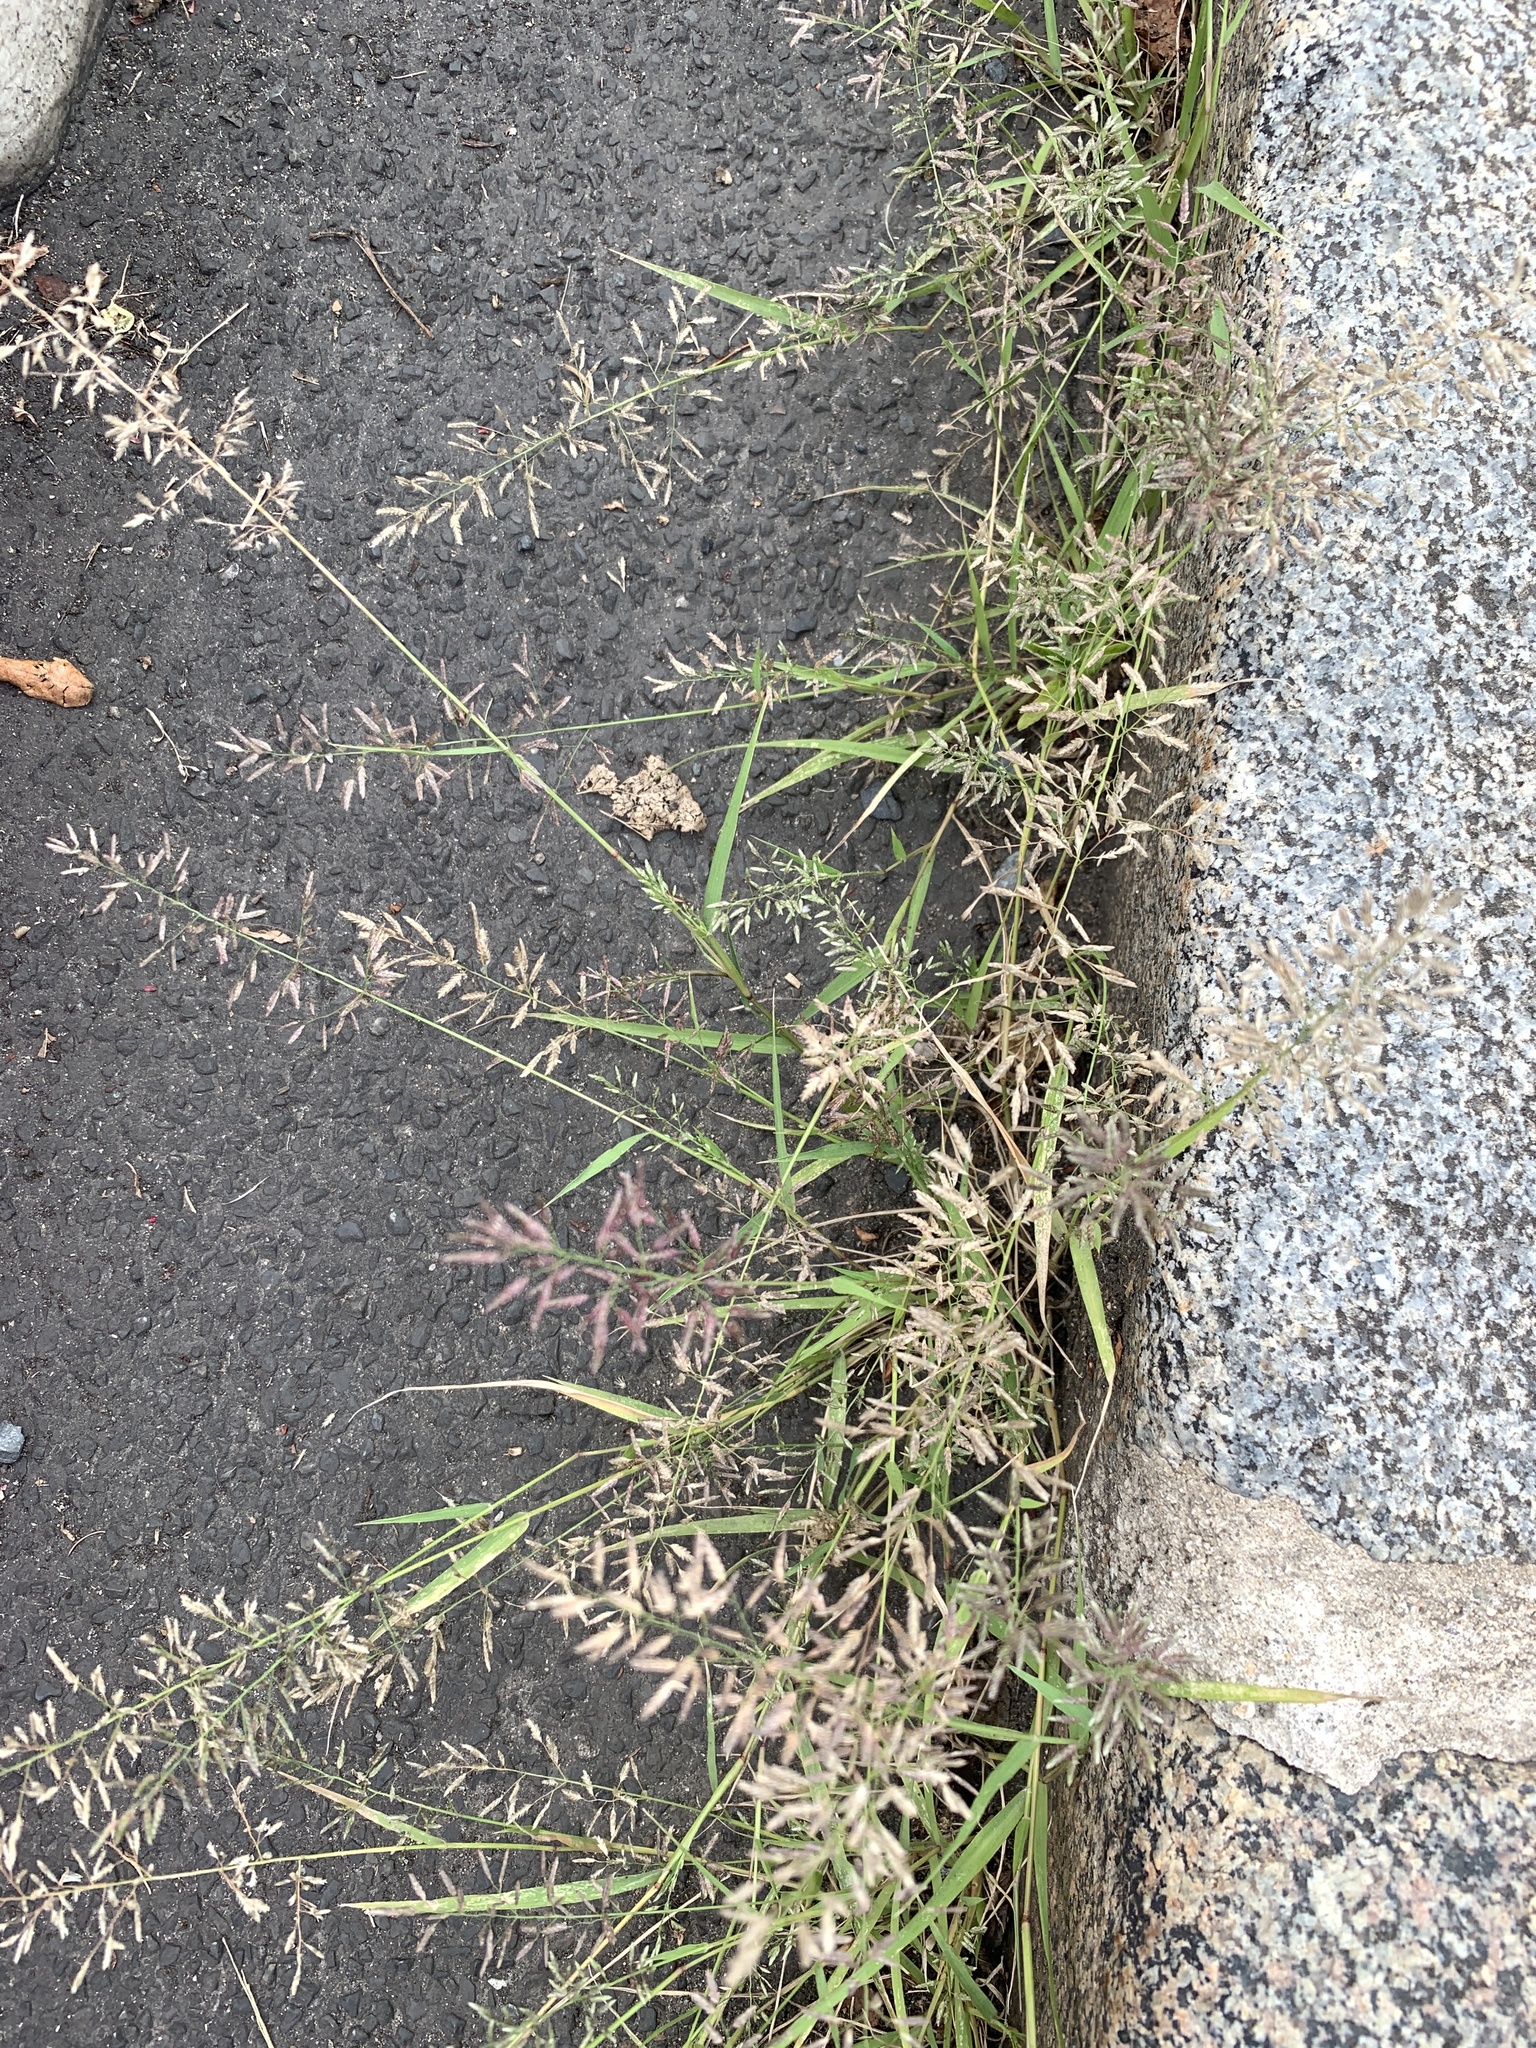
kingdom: Plantae
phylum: Tracheophyta
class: Liliopsida
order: Poales
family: Poaceae
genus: Eragrostis
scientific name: Eragrostis minor
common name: Small love-grass
